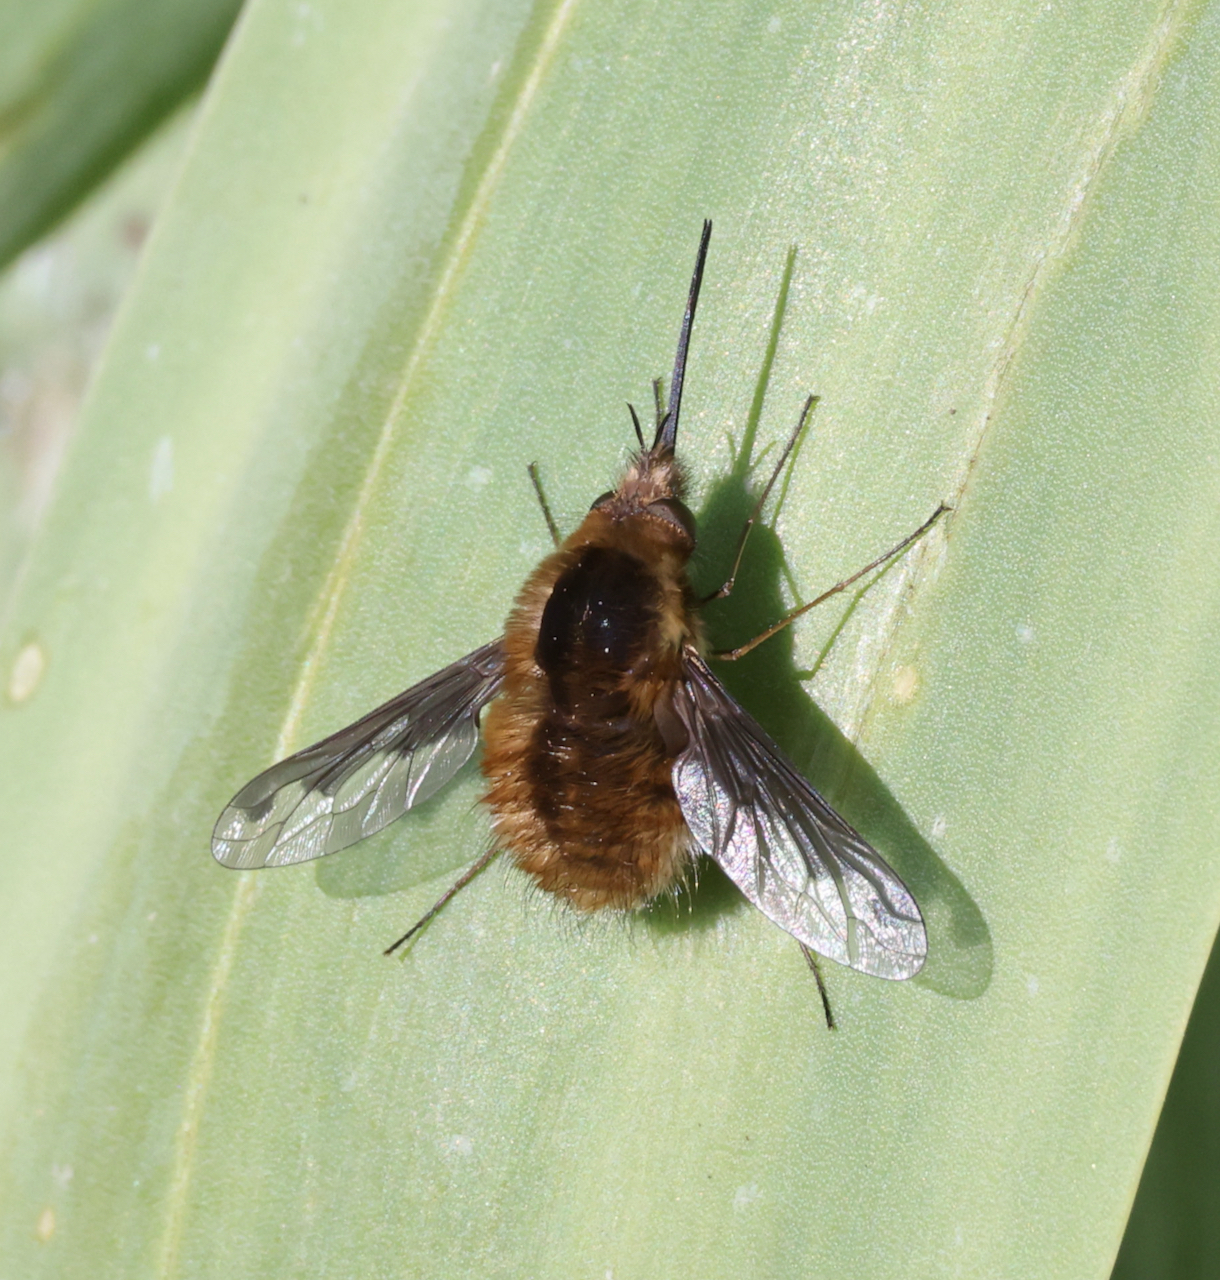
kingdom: Animalia
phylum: Arthropoda
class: Insecta
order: Diptera
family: Bombyliidae
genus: Bombylius
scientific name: Bombylius major
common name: Bee fly
